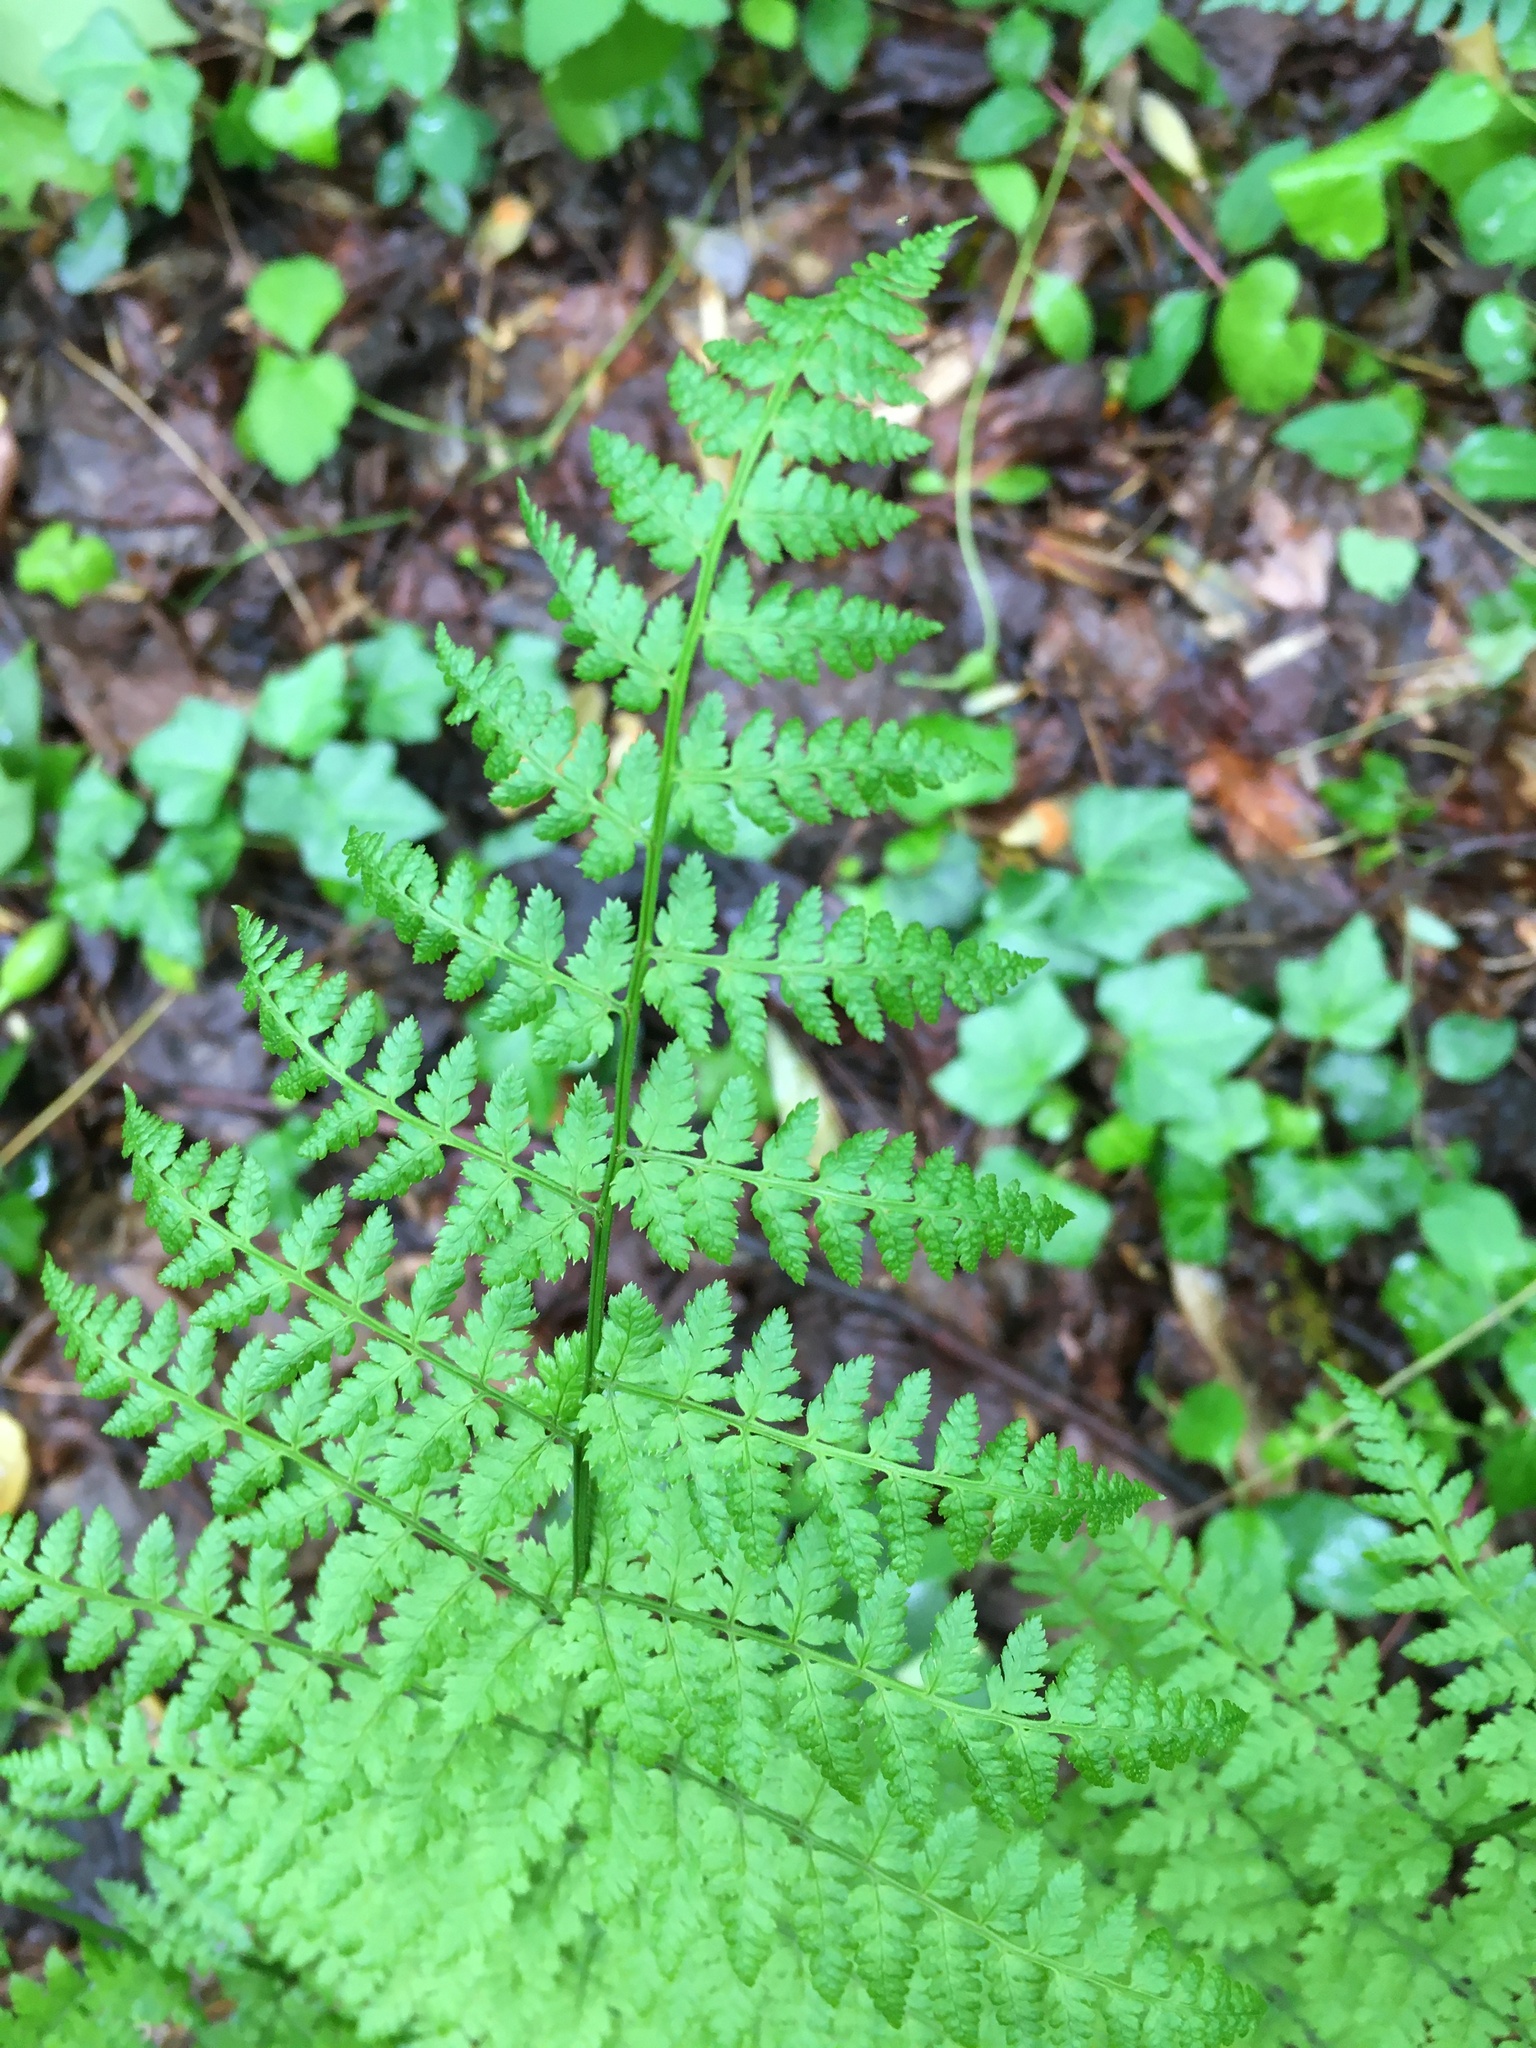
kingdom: Plantae
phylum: Tracheophyta
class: Polypodiopsida
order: Polypodiales
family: Dryopteridaceae
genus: Dryopteris
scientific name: Dryopteris intermedia
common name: Evergreen wood fern
